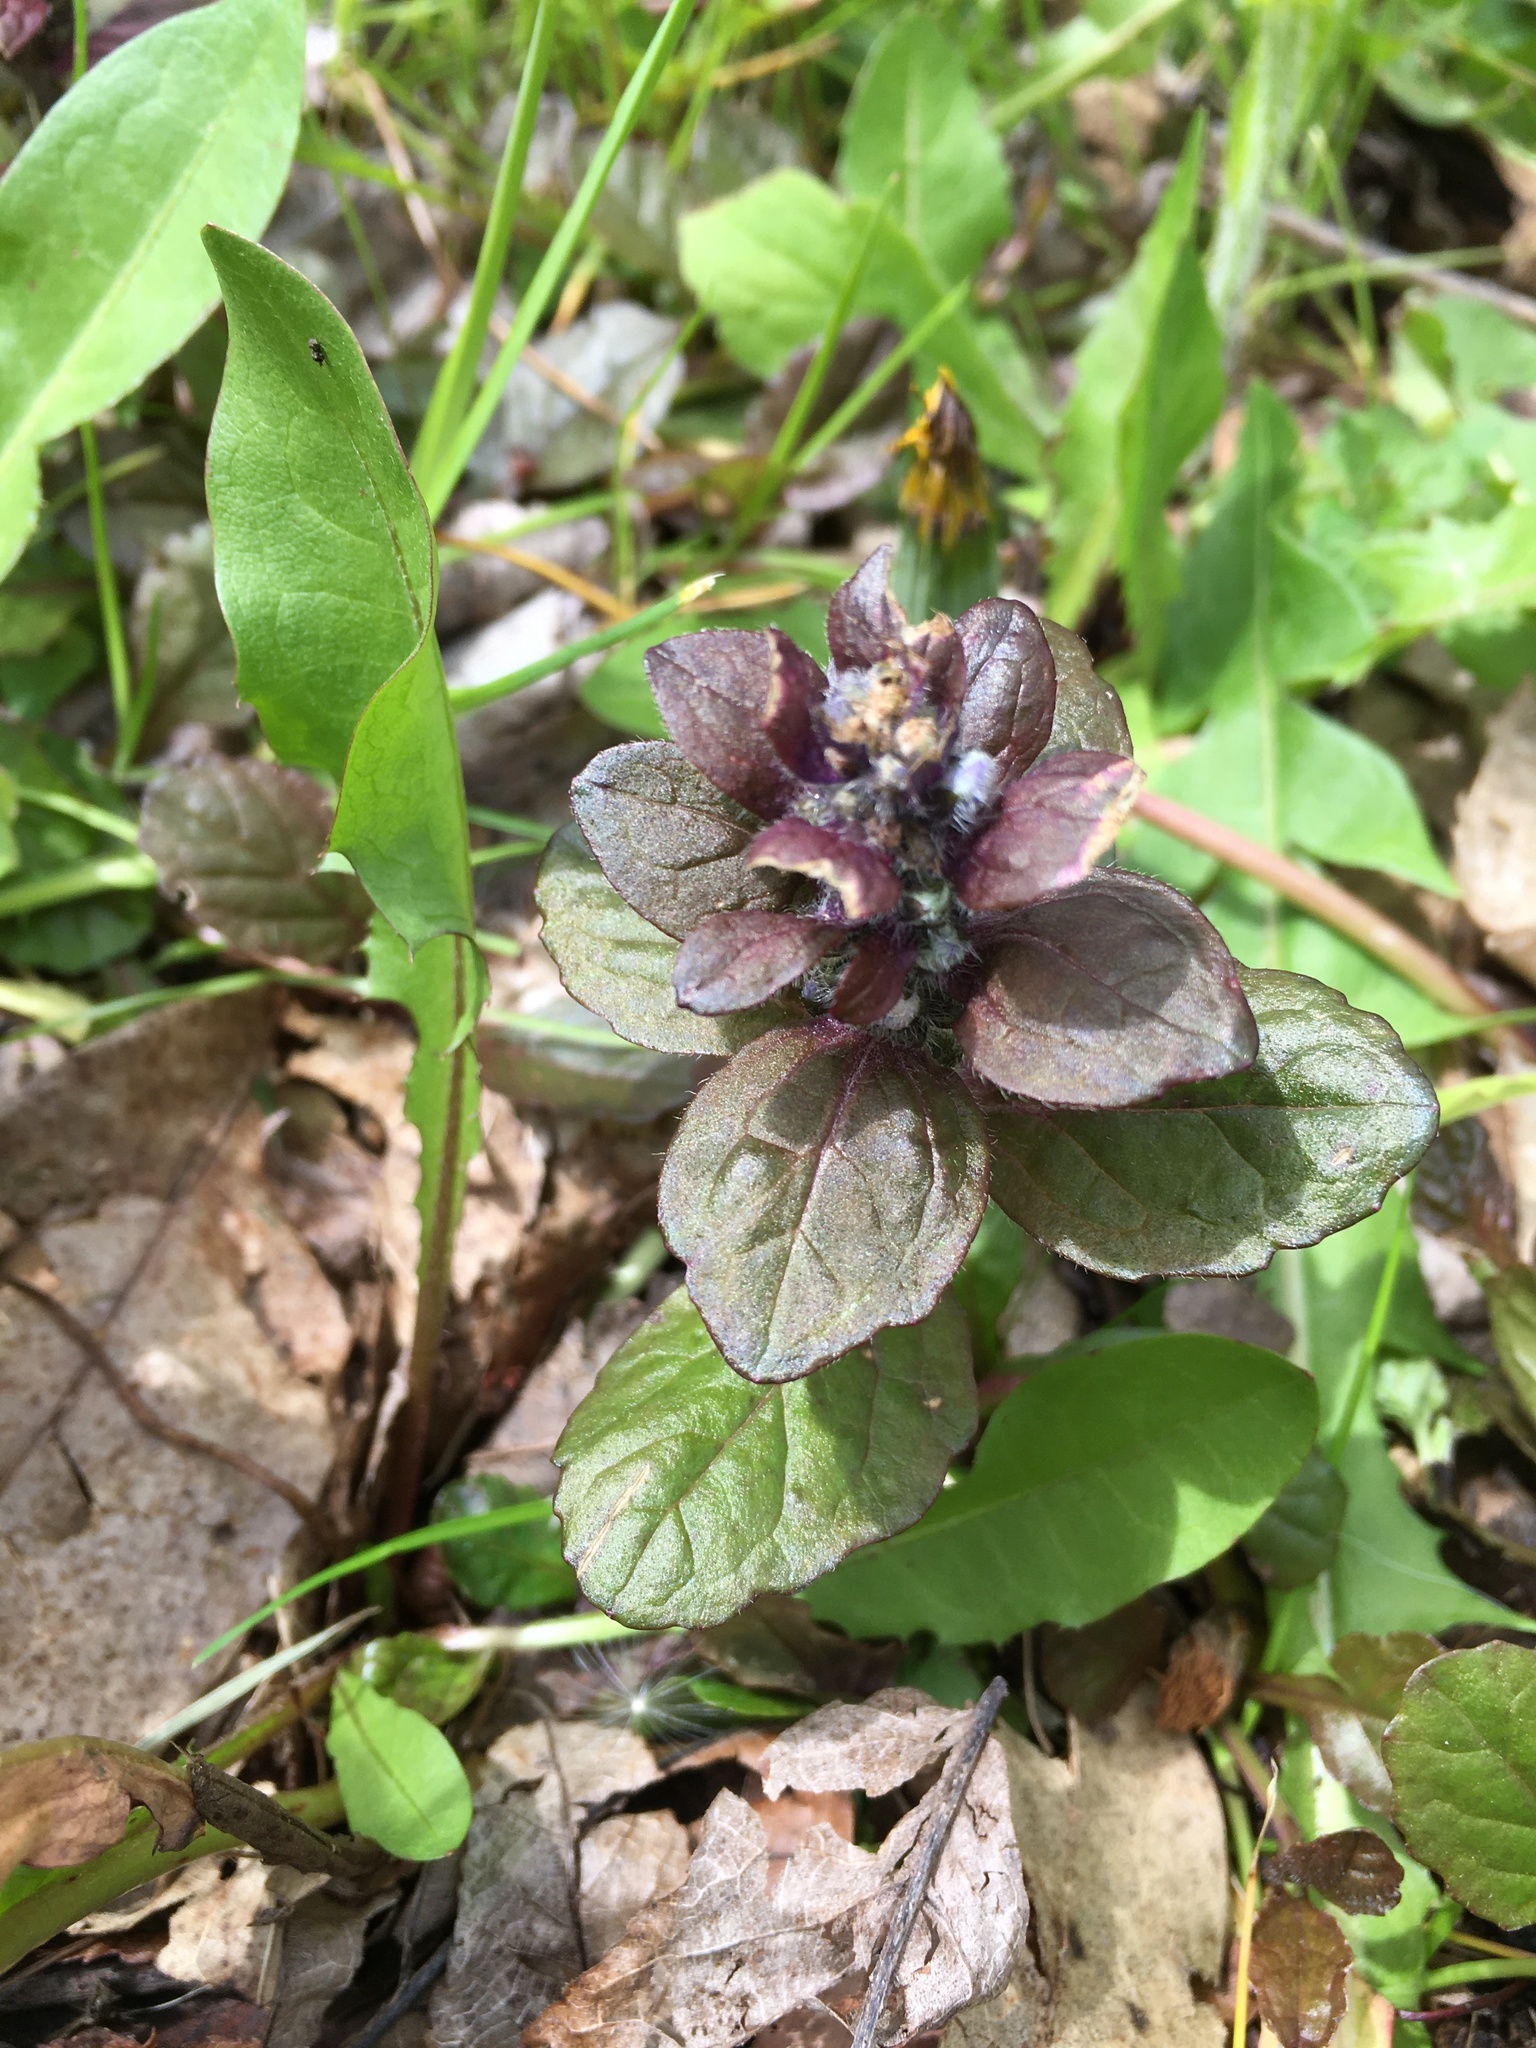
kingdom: Plantae
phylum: Tracheophyta
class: Magnoliopsida
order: Lamiales
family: Lamiaceae
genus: Ajuga
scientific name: Ajuga reptans
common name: Bugle
